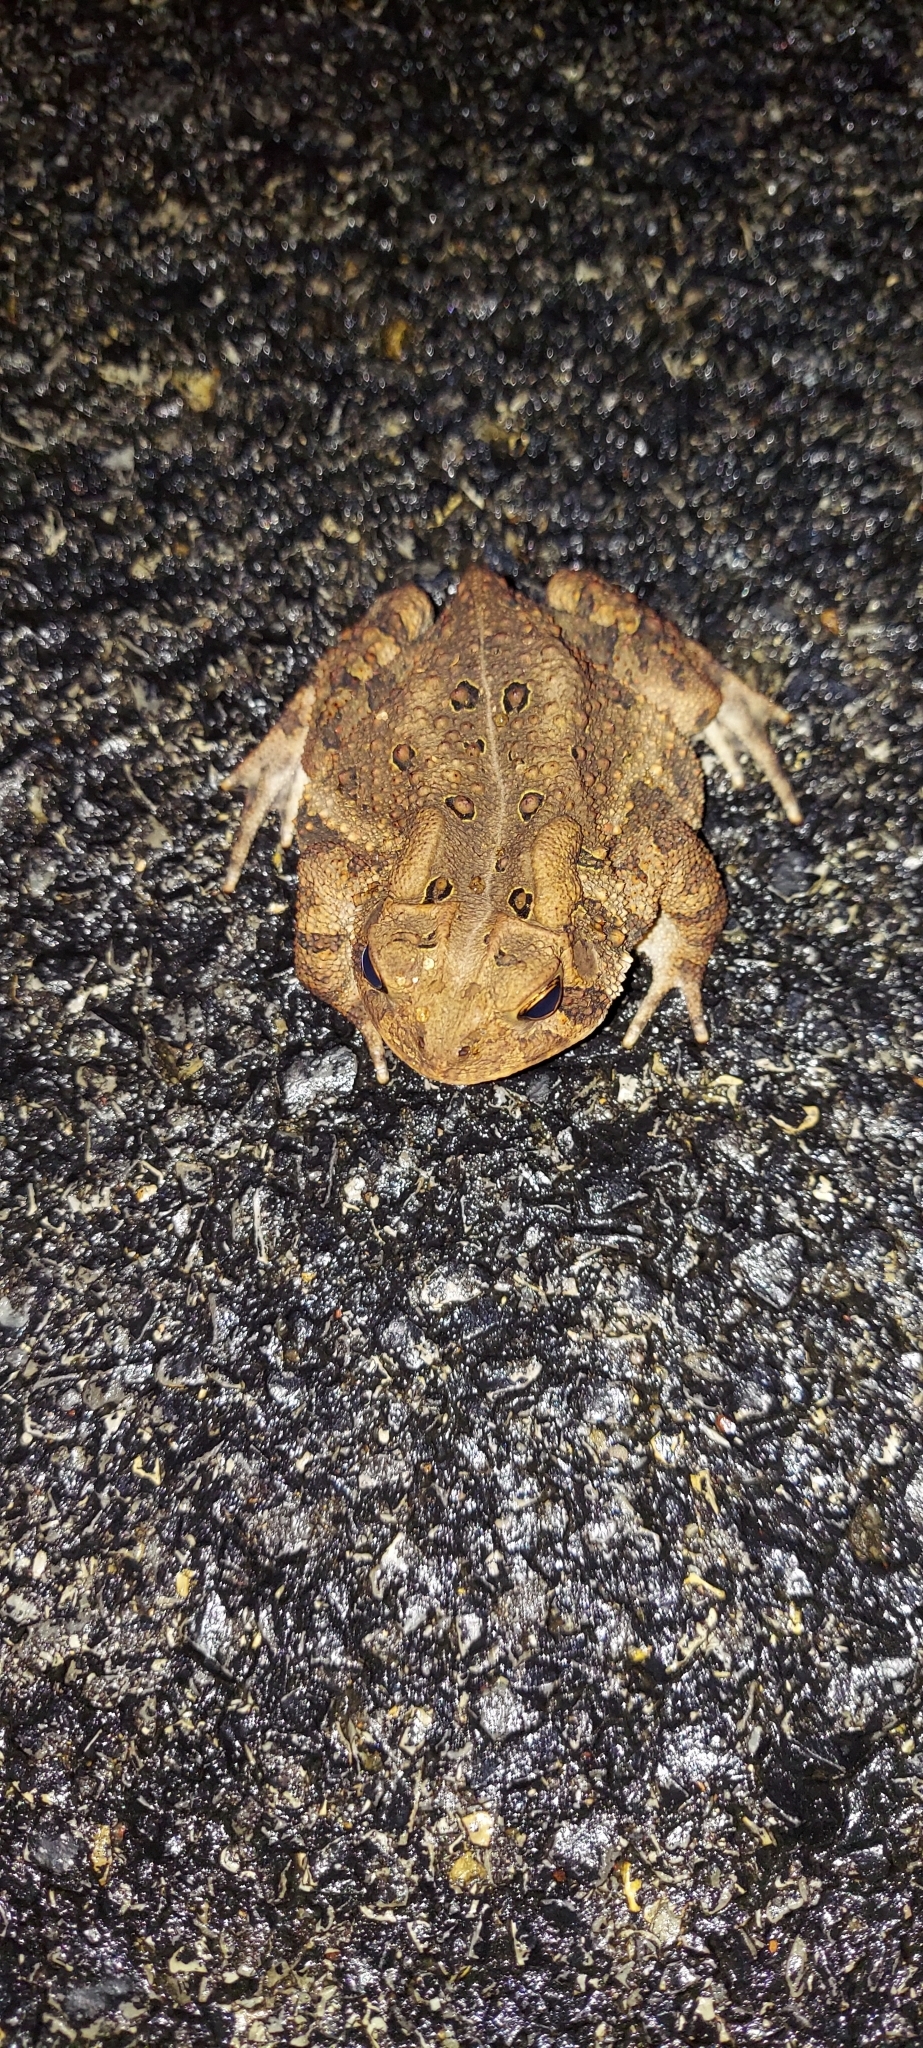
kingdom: Animalia
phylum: Chordata
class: Amphibia
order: Anura
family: Bufonidae
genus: Anaxyrus
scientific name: Anaxyrus americanus
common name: American toad
